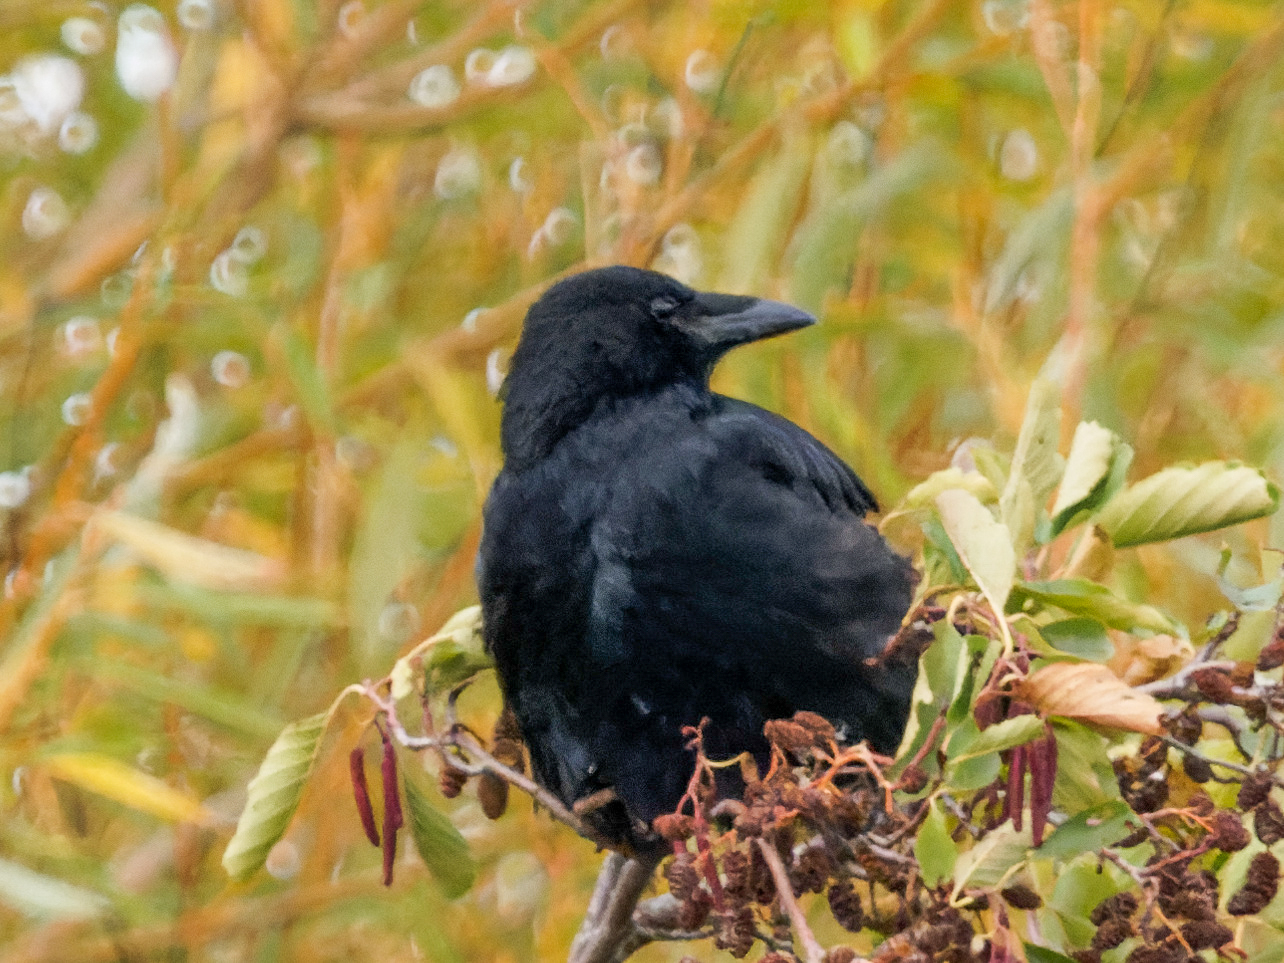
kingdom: Animalia
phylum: Chordata
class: Aves
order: Passeriformes
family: Corvidae
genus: Corvus
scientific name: Corvus corone
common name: Carrion crow
